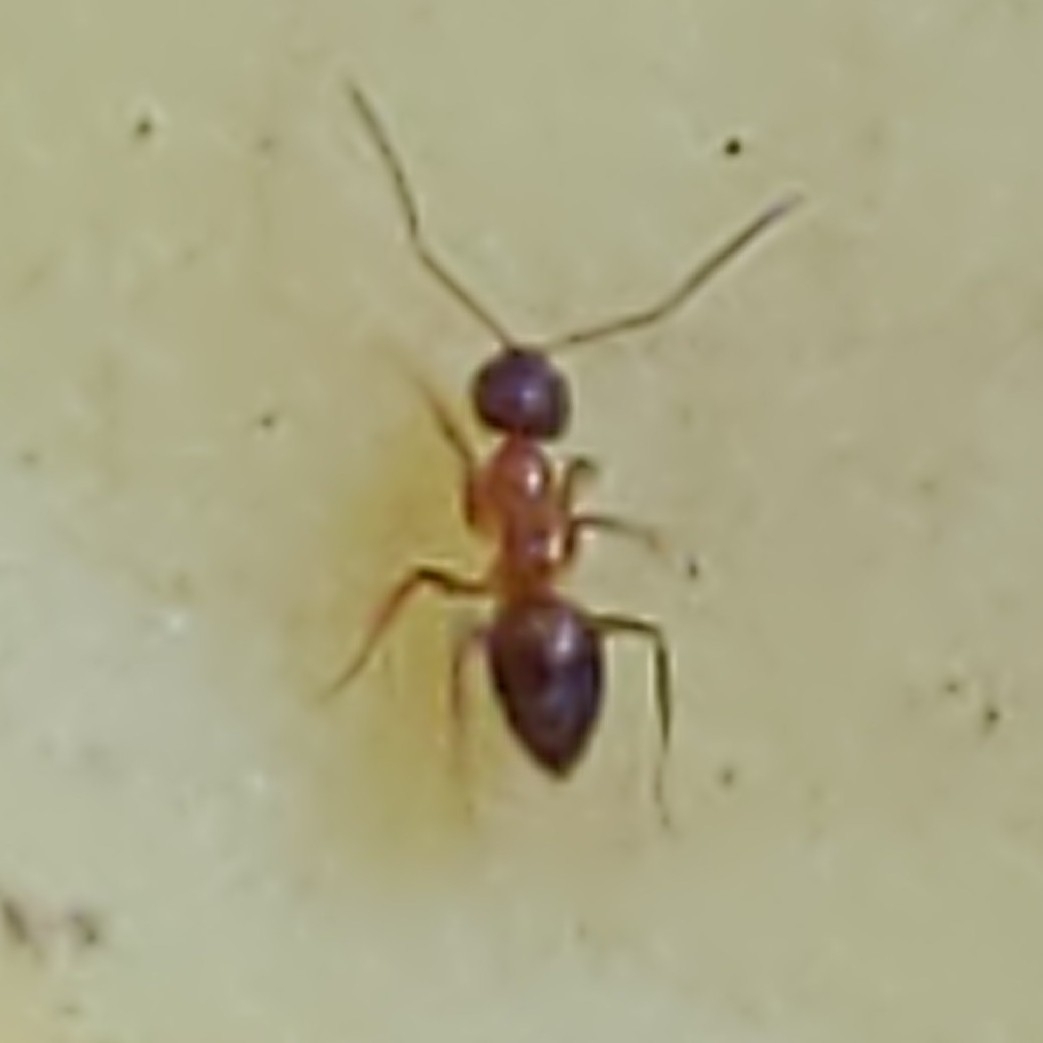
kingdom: Animalia
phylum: Arthropoda
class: Insecta
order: Hymenoptera
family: Formicidae
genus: Paratrechina
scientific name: Paratrechina flavipes
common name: Eastern asian formicine ant
